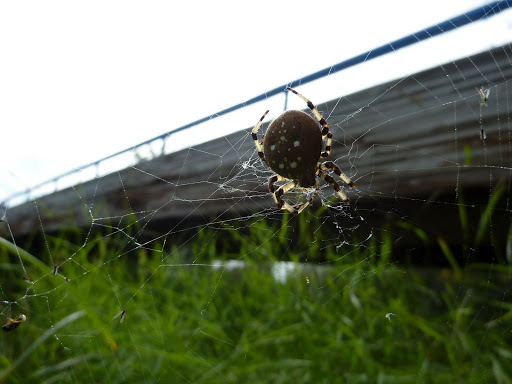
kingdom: Animalia
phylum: Arthropoda
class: Arachnida
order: Araneae
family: Araneidae
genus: Araneus
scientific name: Araneus trifolium
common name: Shamrock orbweaver
